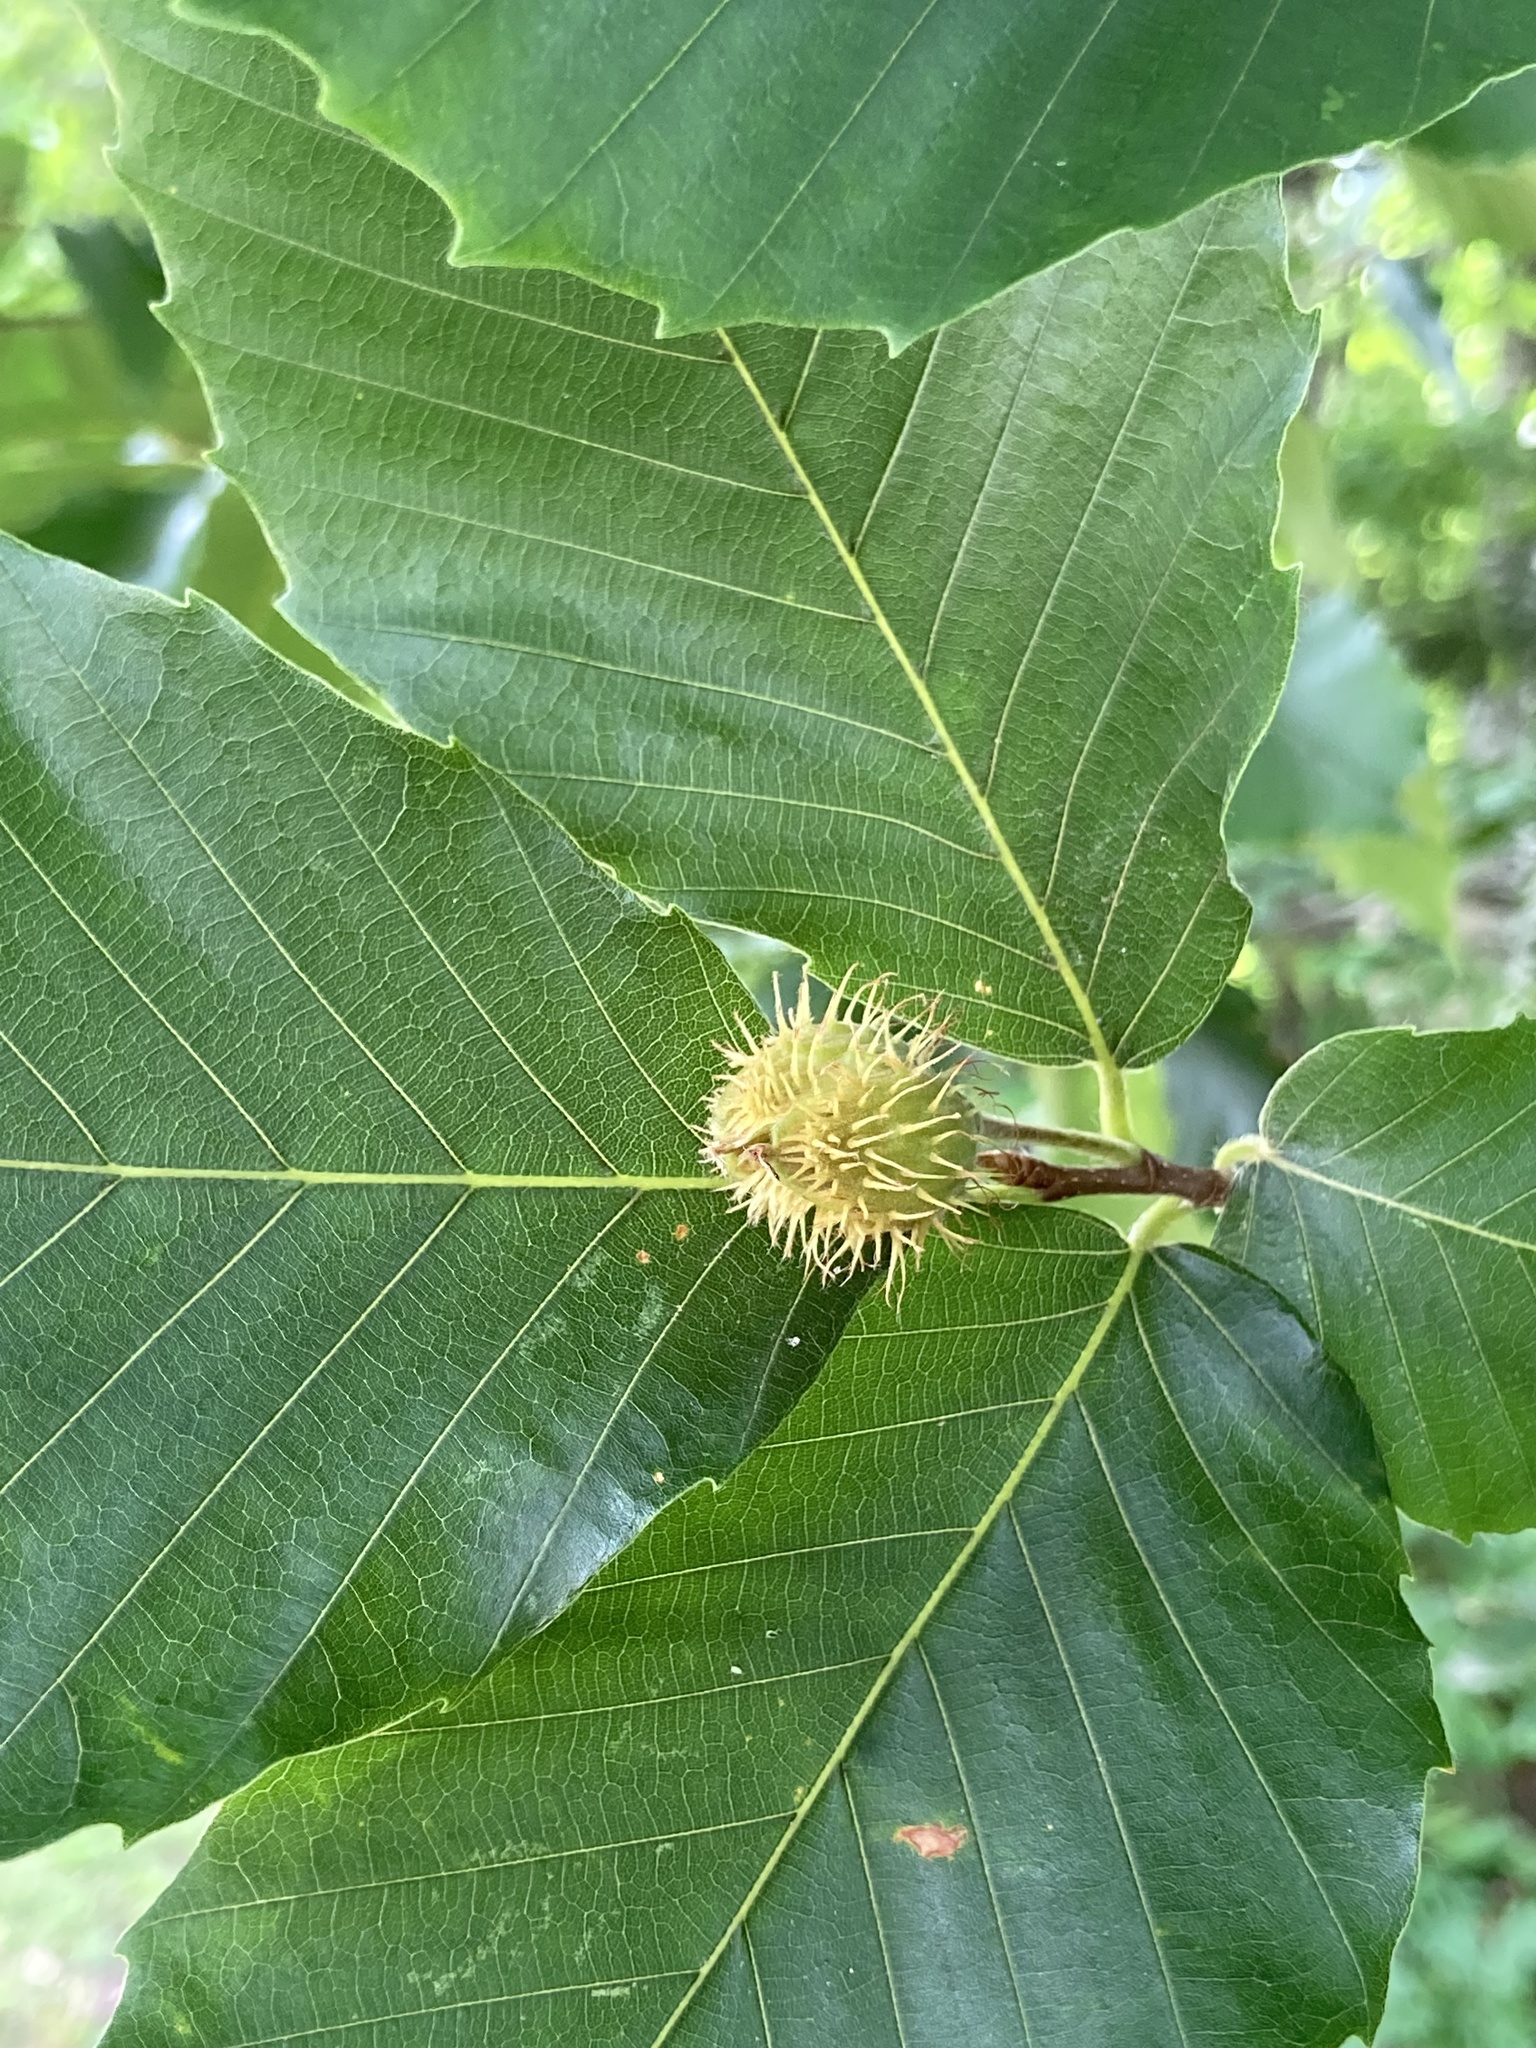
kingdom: Plantae
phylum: Tracheophyta
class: Magnoliopsida
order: Fagales
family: Fagaceae
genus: Fagus
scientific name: Fagus grandifolia
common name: American beech
